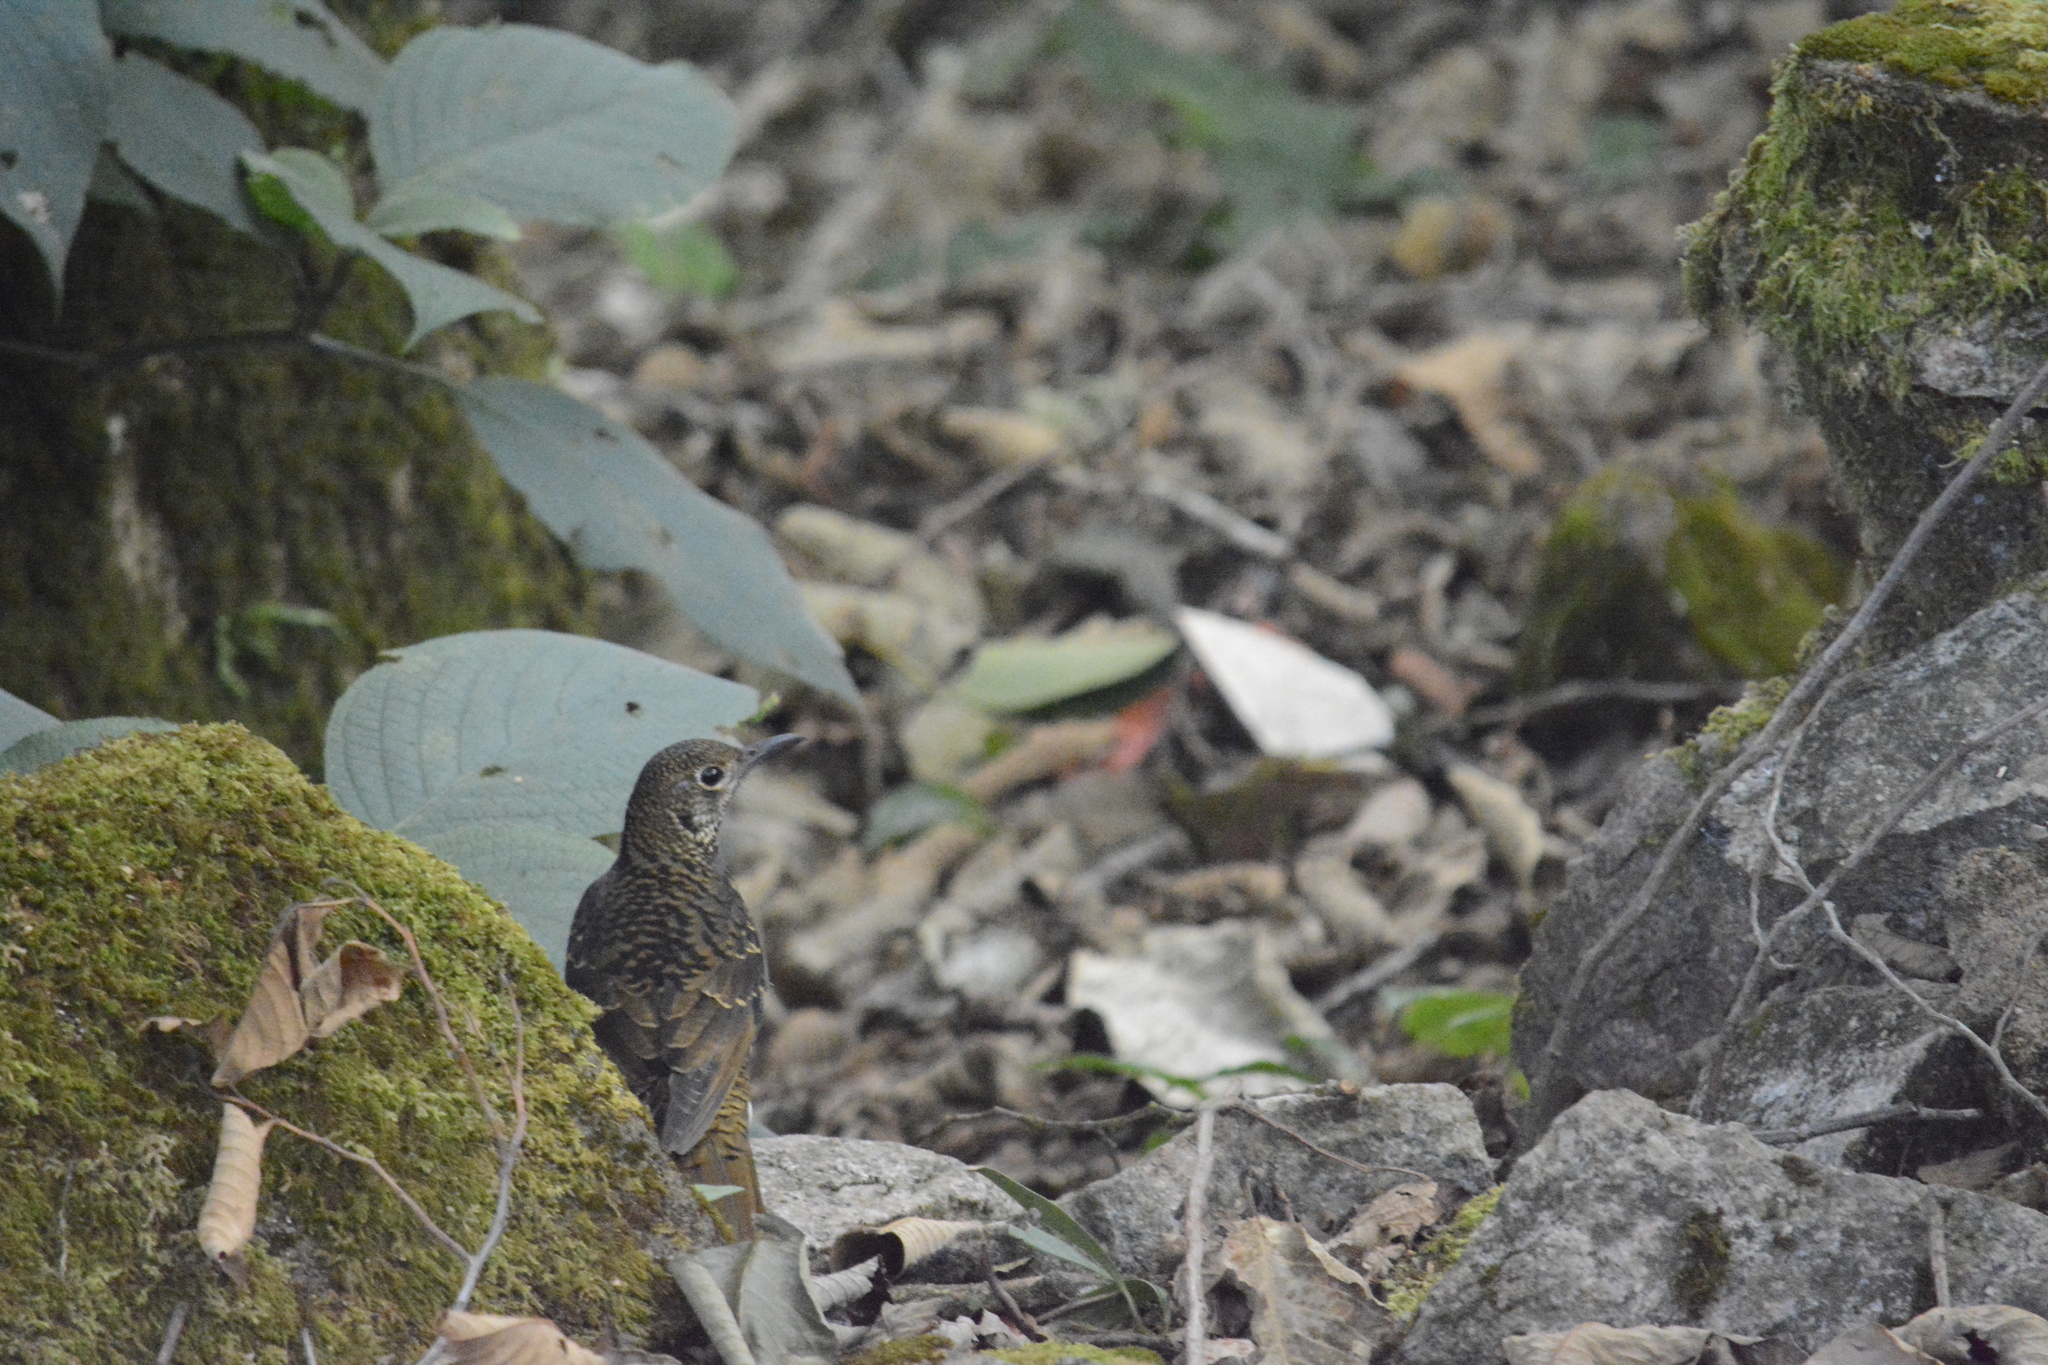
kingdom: Animalia
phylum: Chordata
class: Aves
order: Passeriformes
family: Turdidae
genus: Zoothera
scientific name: Zoothera neilgherriensis
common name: Nilgiri thrush
